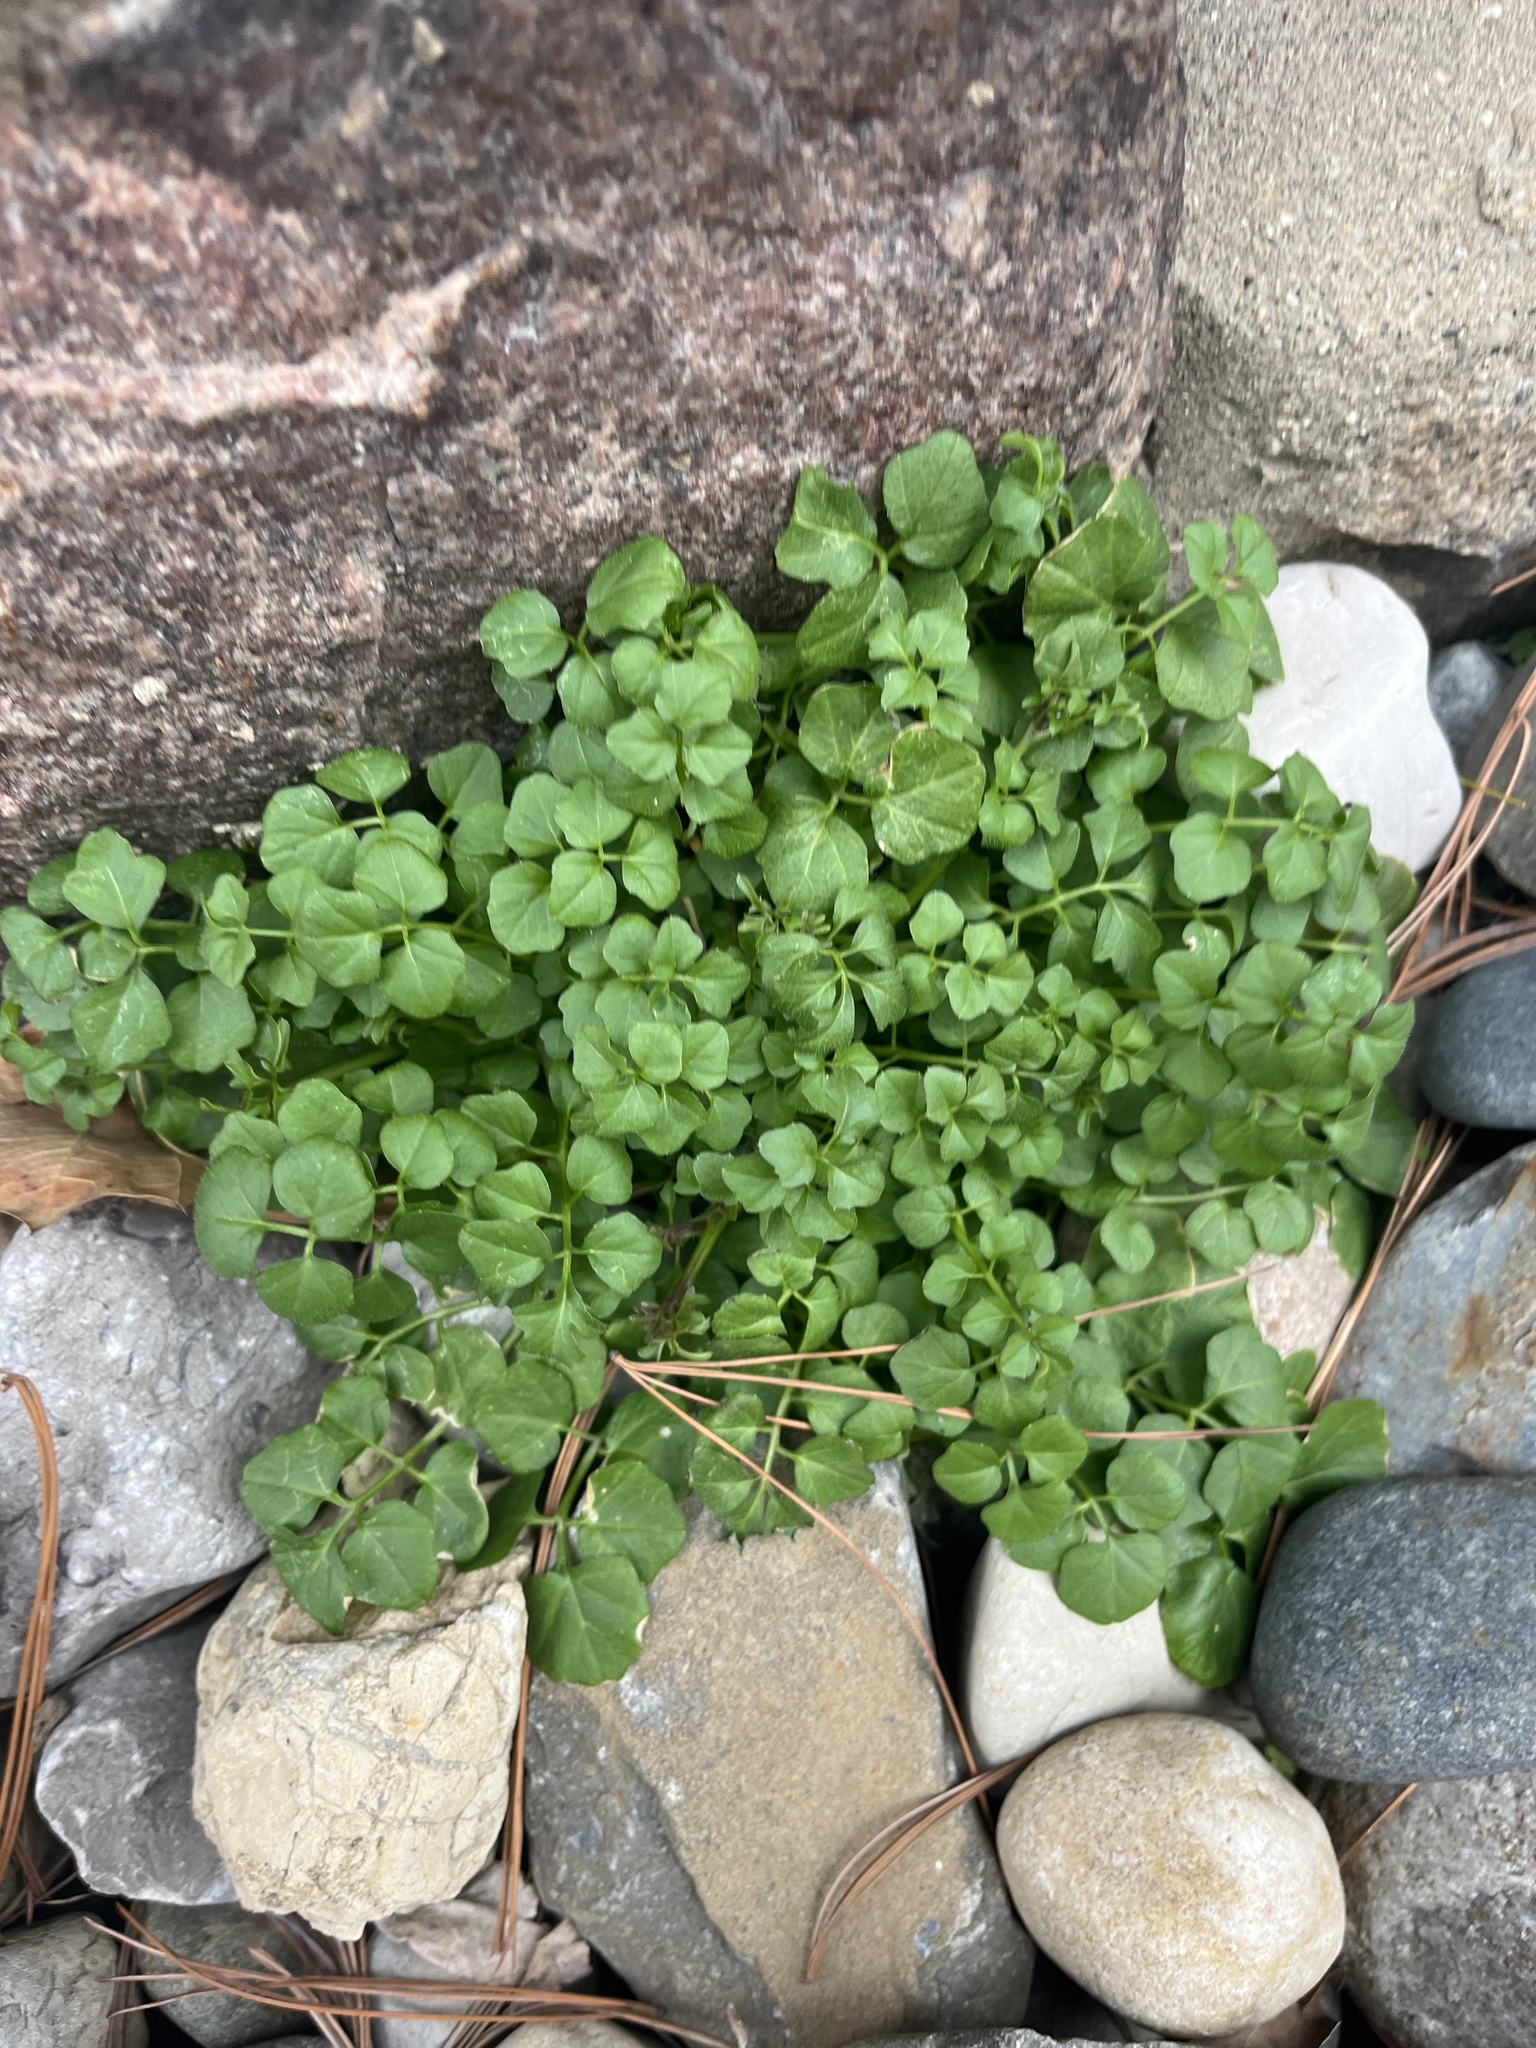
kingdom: Plantae
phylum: Tracheophyta
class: Magnoliopsida
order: Brassicales
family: Brassicaceae
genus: Cardamine
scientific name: Cardamine hirsuta
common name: Hairy bittercress
